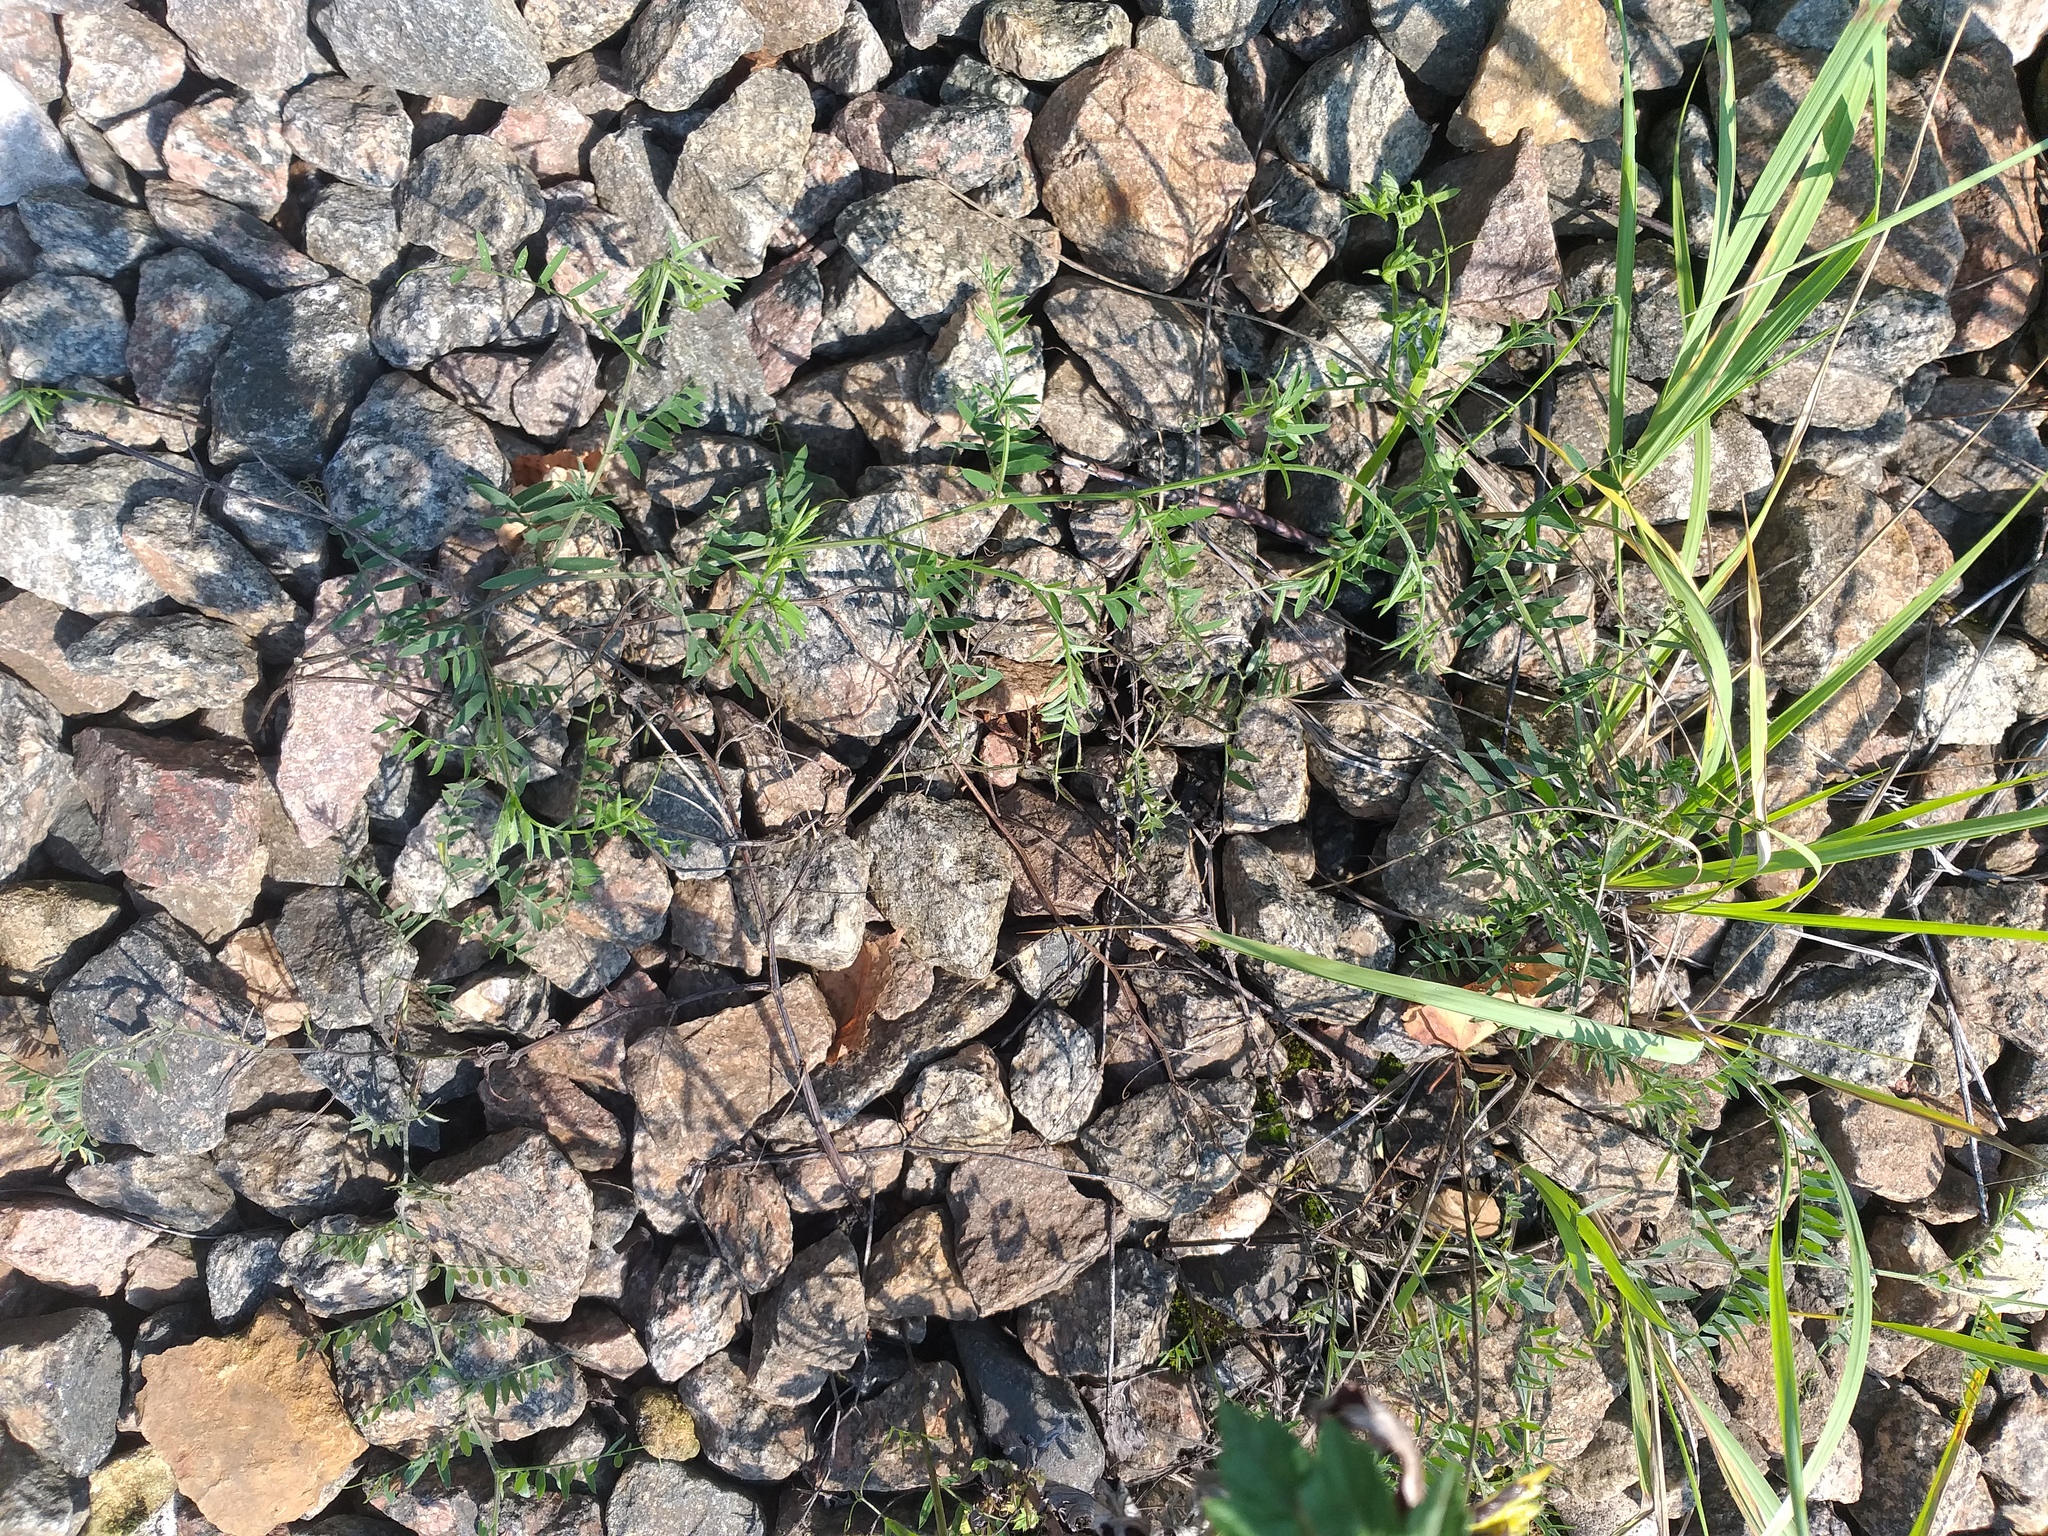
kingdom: Plantae
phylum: Tracheophyta
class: Magnoliopsida
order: Fabales
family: Fabaceae
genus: Vicia
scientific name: Vicia cracca
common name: Bird vetch
